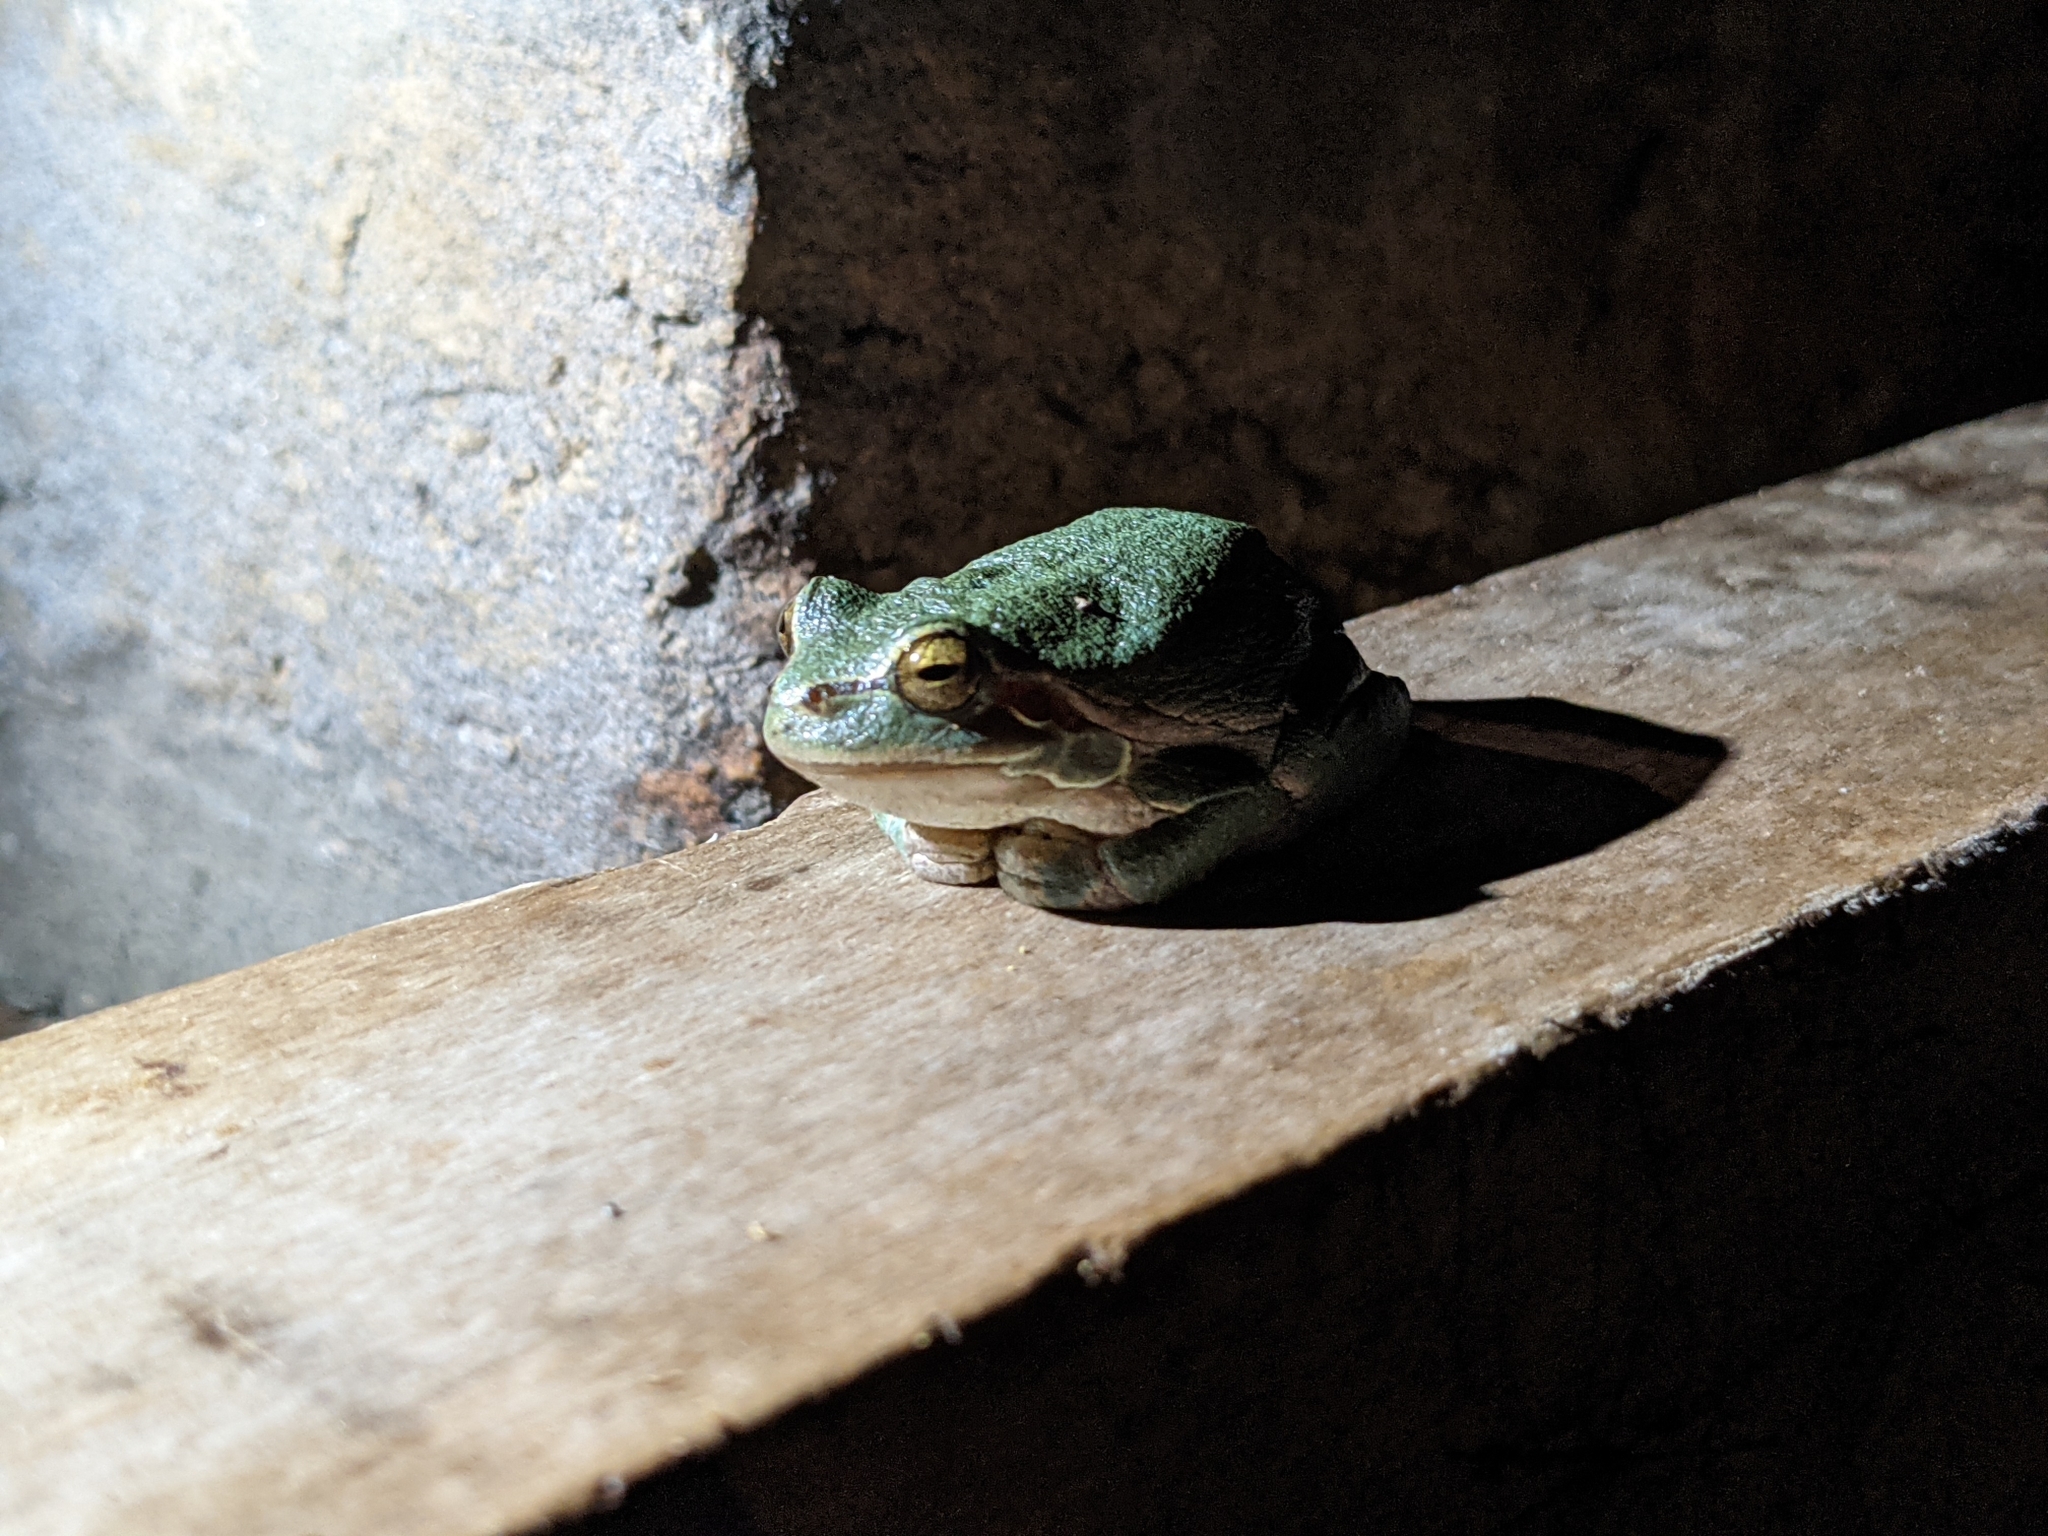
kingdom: Animalia
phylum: Chordata
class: Amphibia
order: Anura
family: Hylidae
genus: Hyla
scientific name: Hyla arborea
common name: Common tree frog
